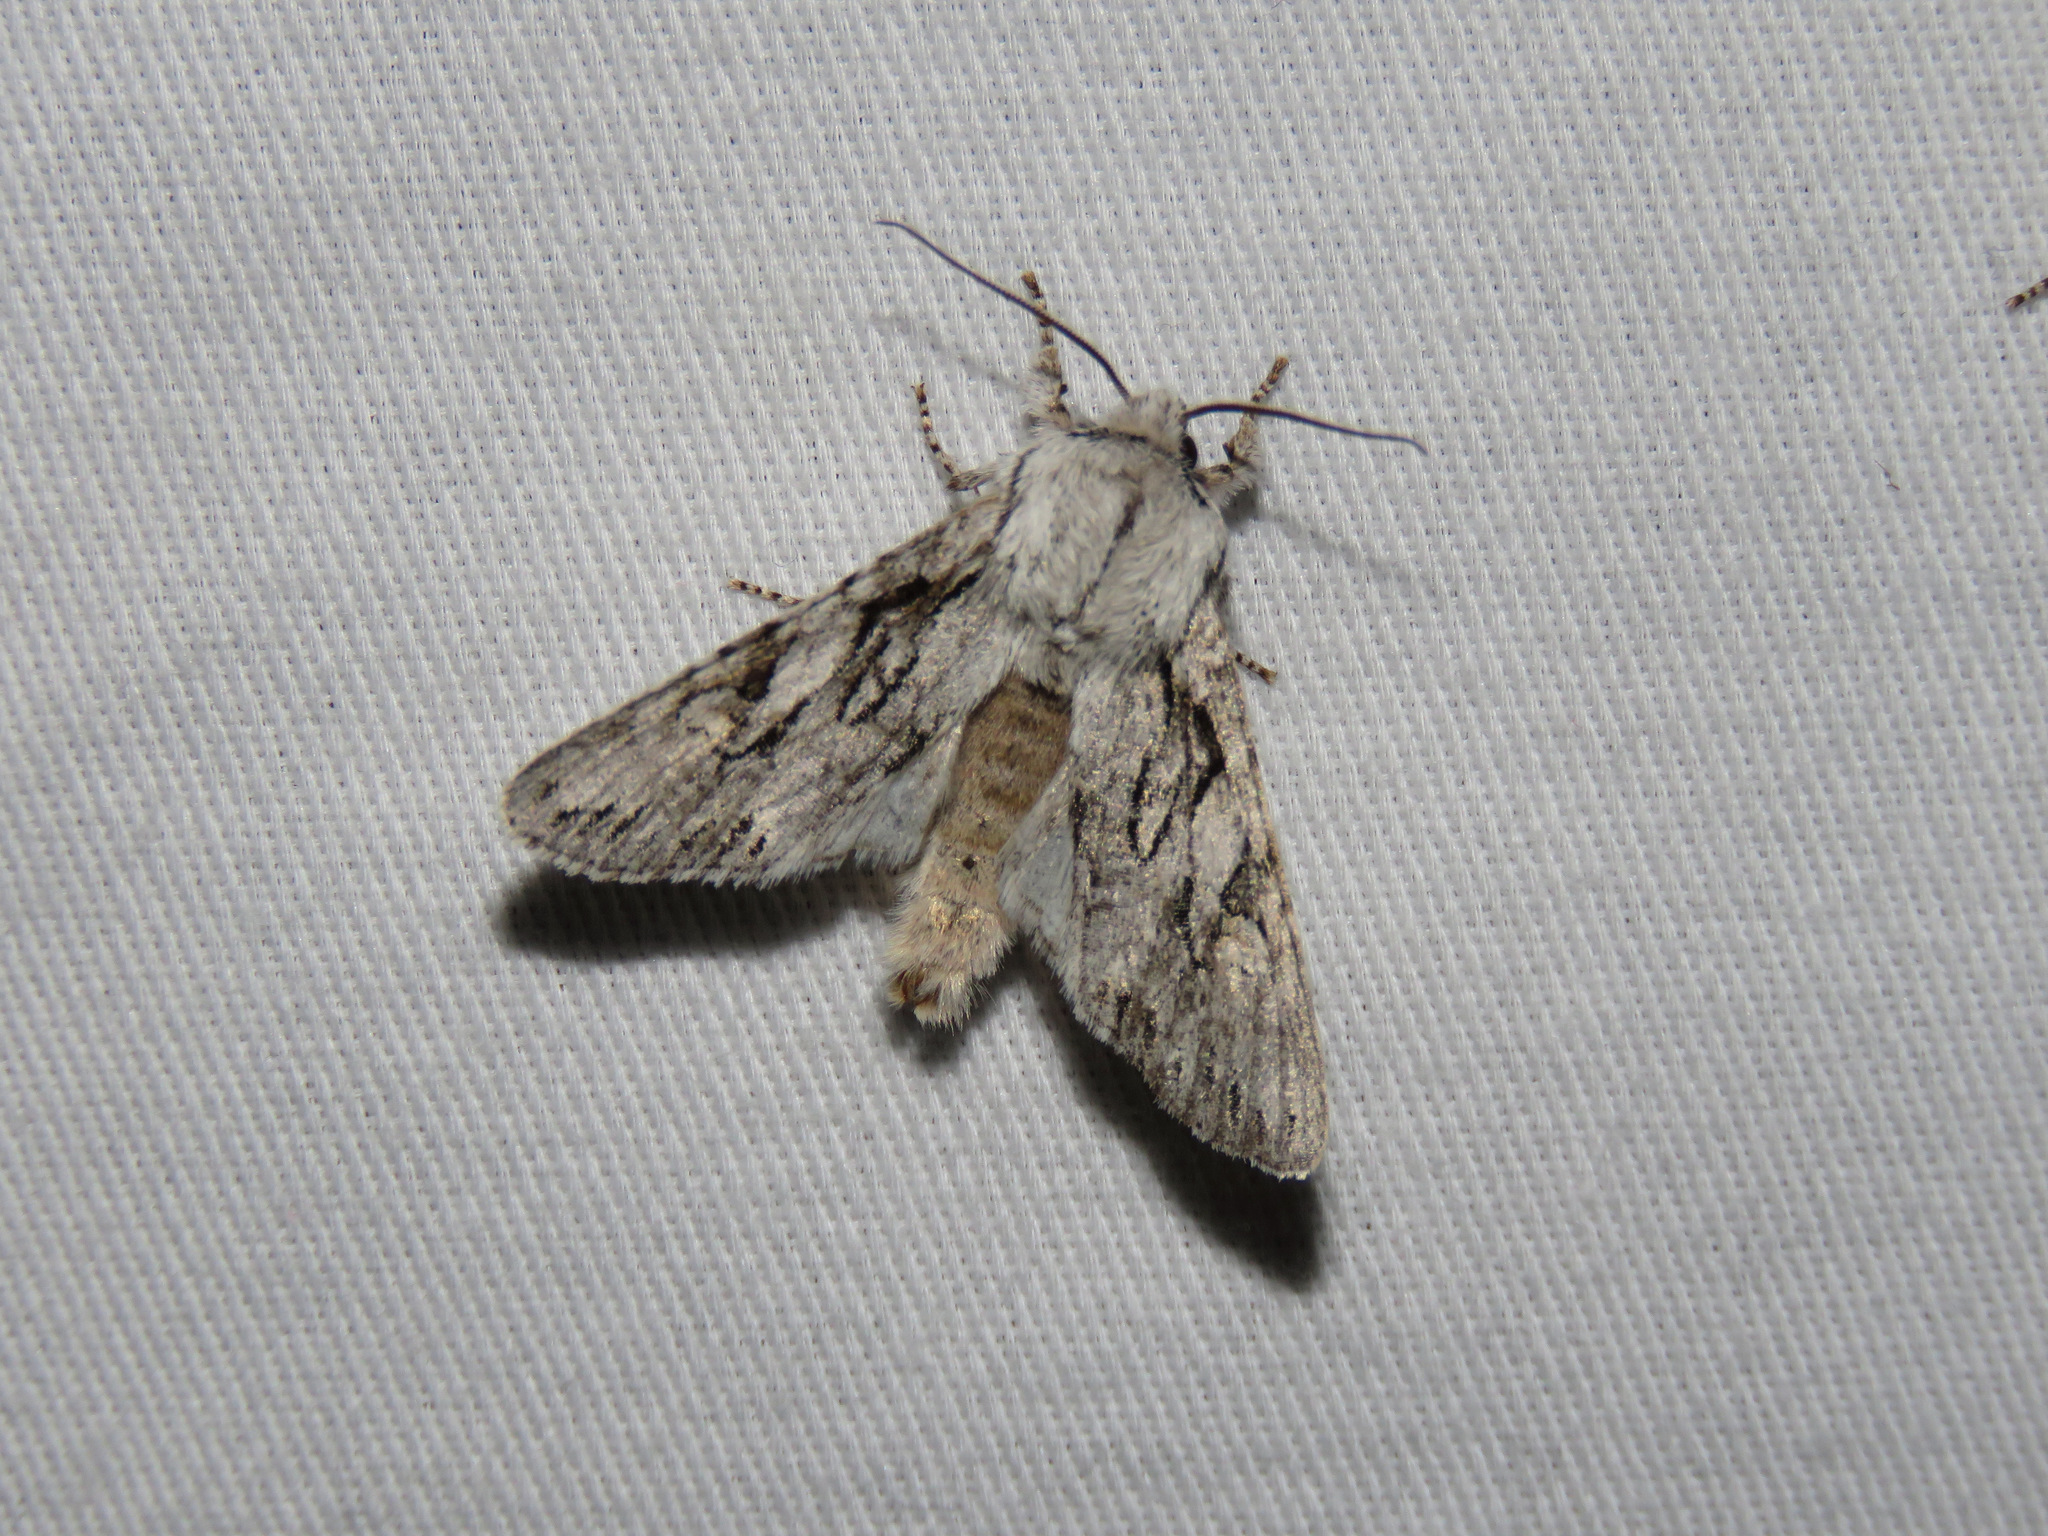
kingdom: Animalia
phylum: Arthropoda
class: Insecta
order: Lepidoptera
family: Noctuidae
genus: Egira
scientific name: Egira simplex
